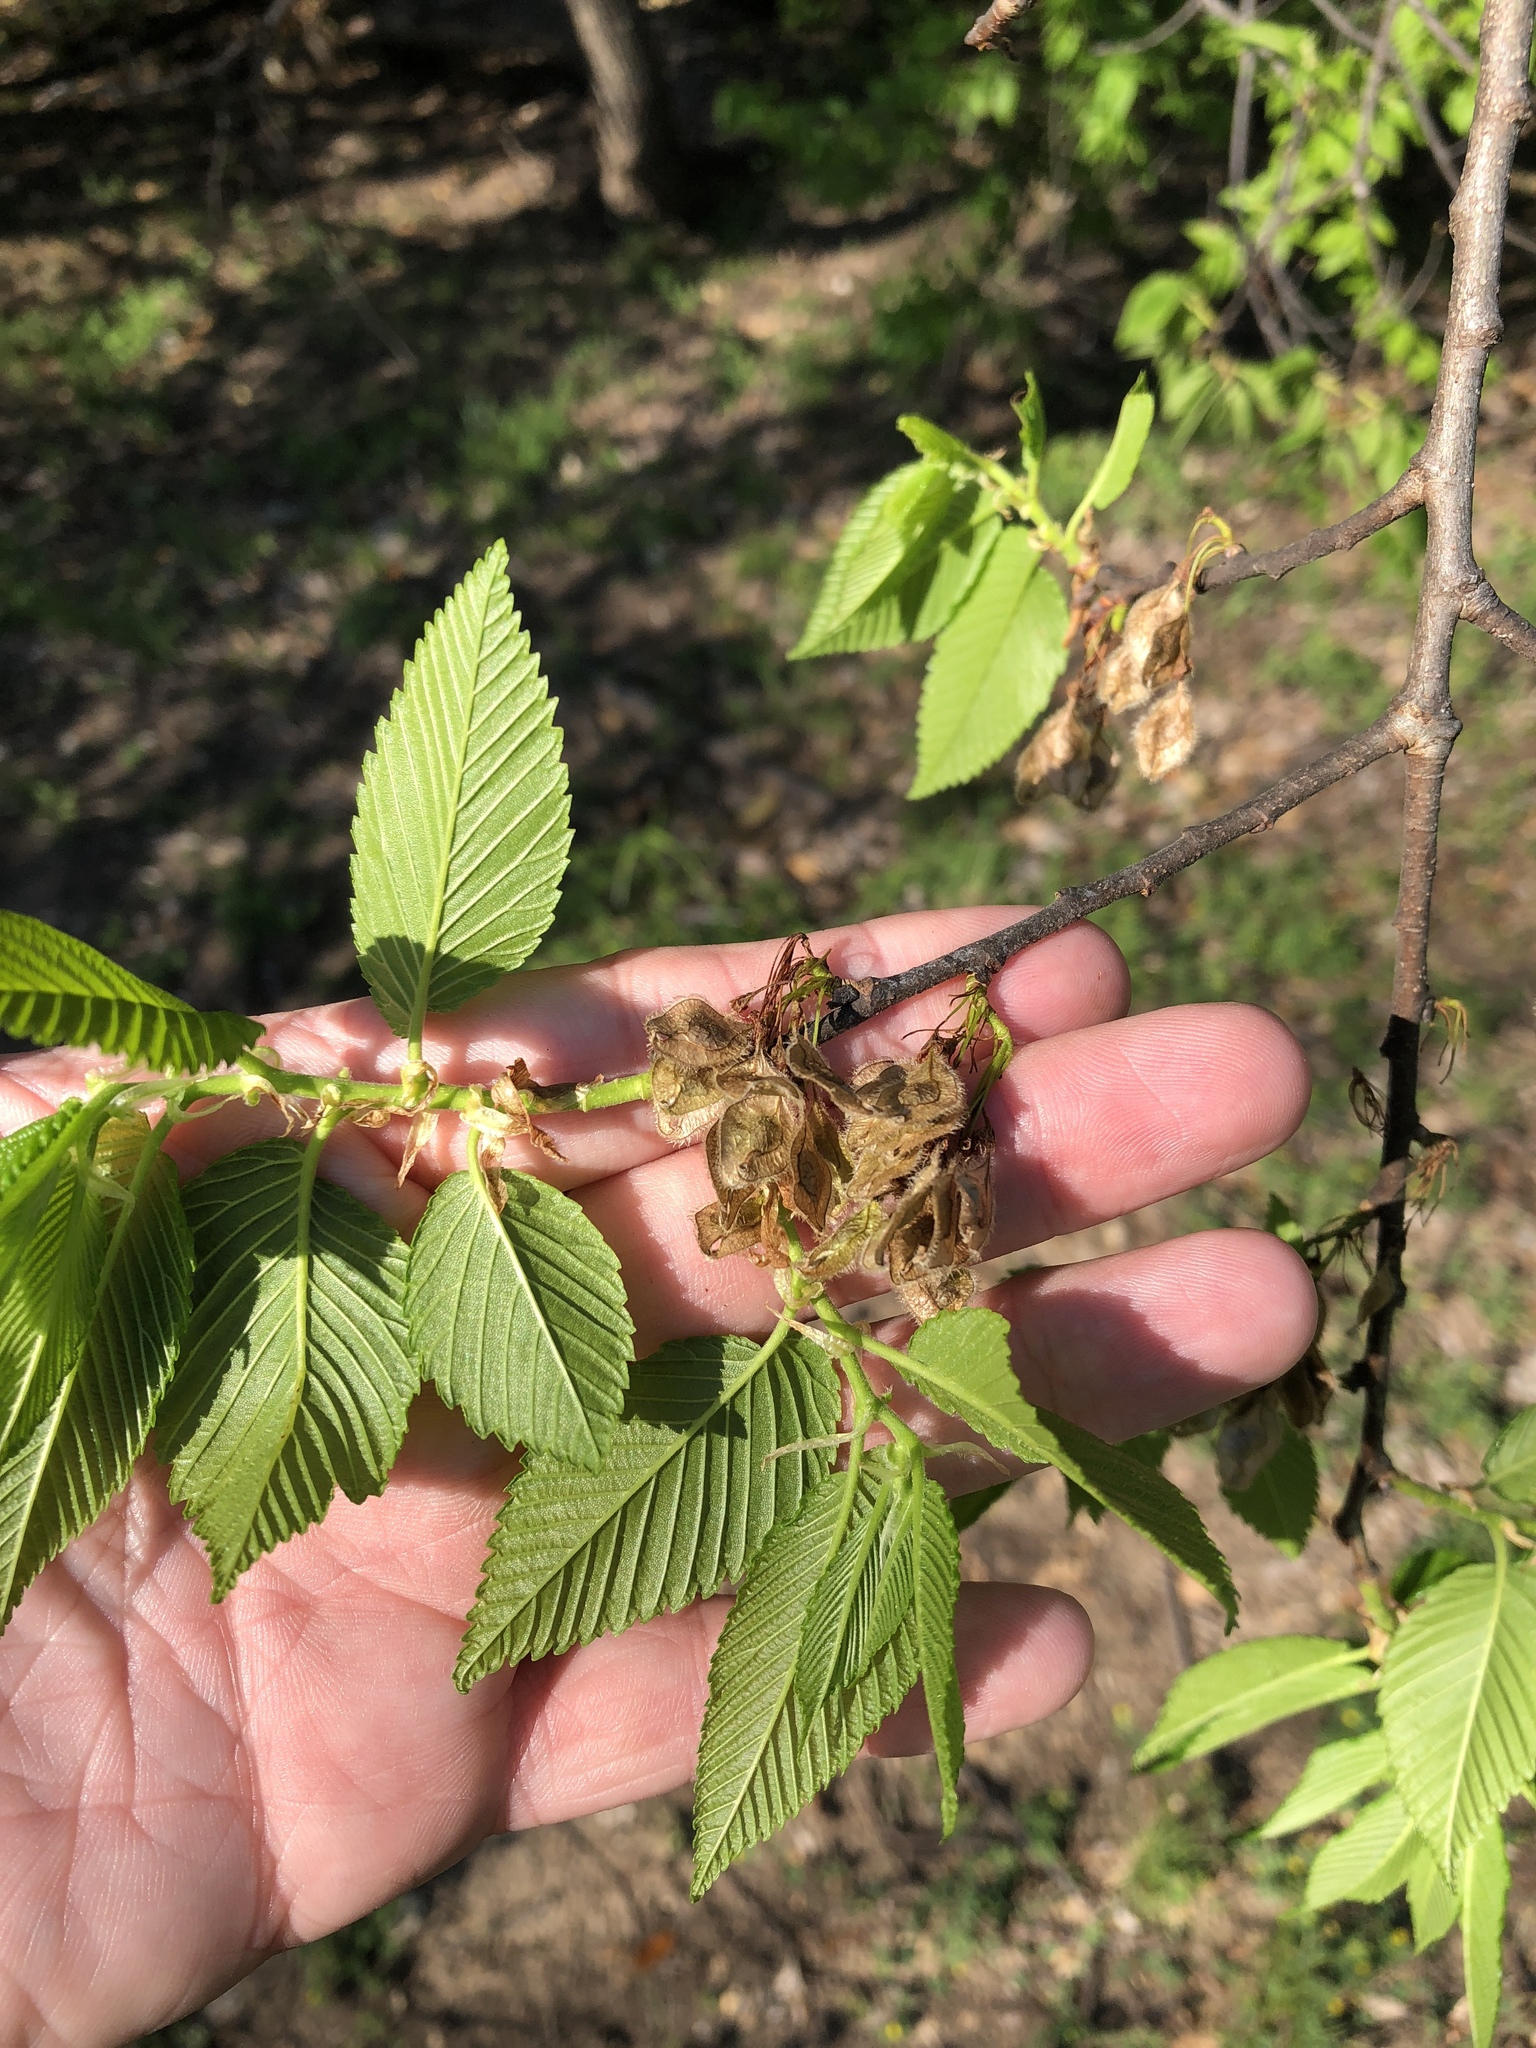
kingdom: Plantae
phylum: Tracheophyta
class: Magnoliopsida
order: Rosales
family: Ulmaceae
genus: Ulmus
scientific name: Ulmus americana
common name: American elm
